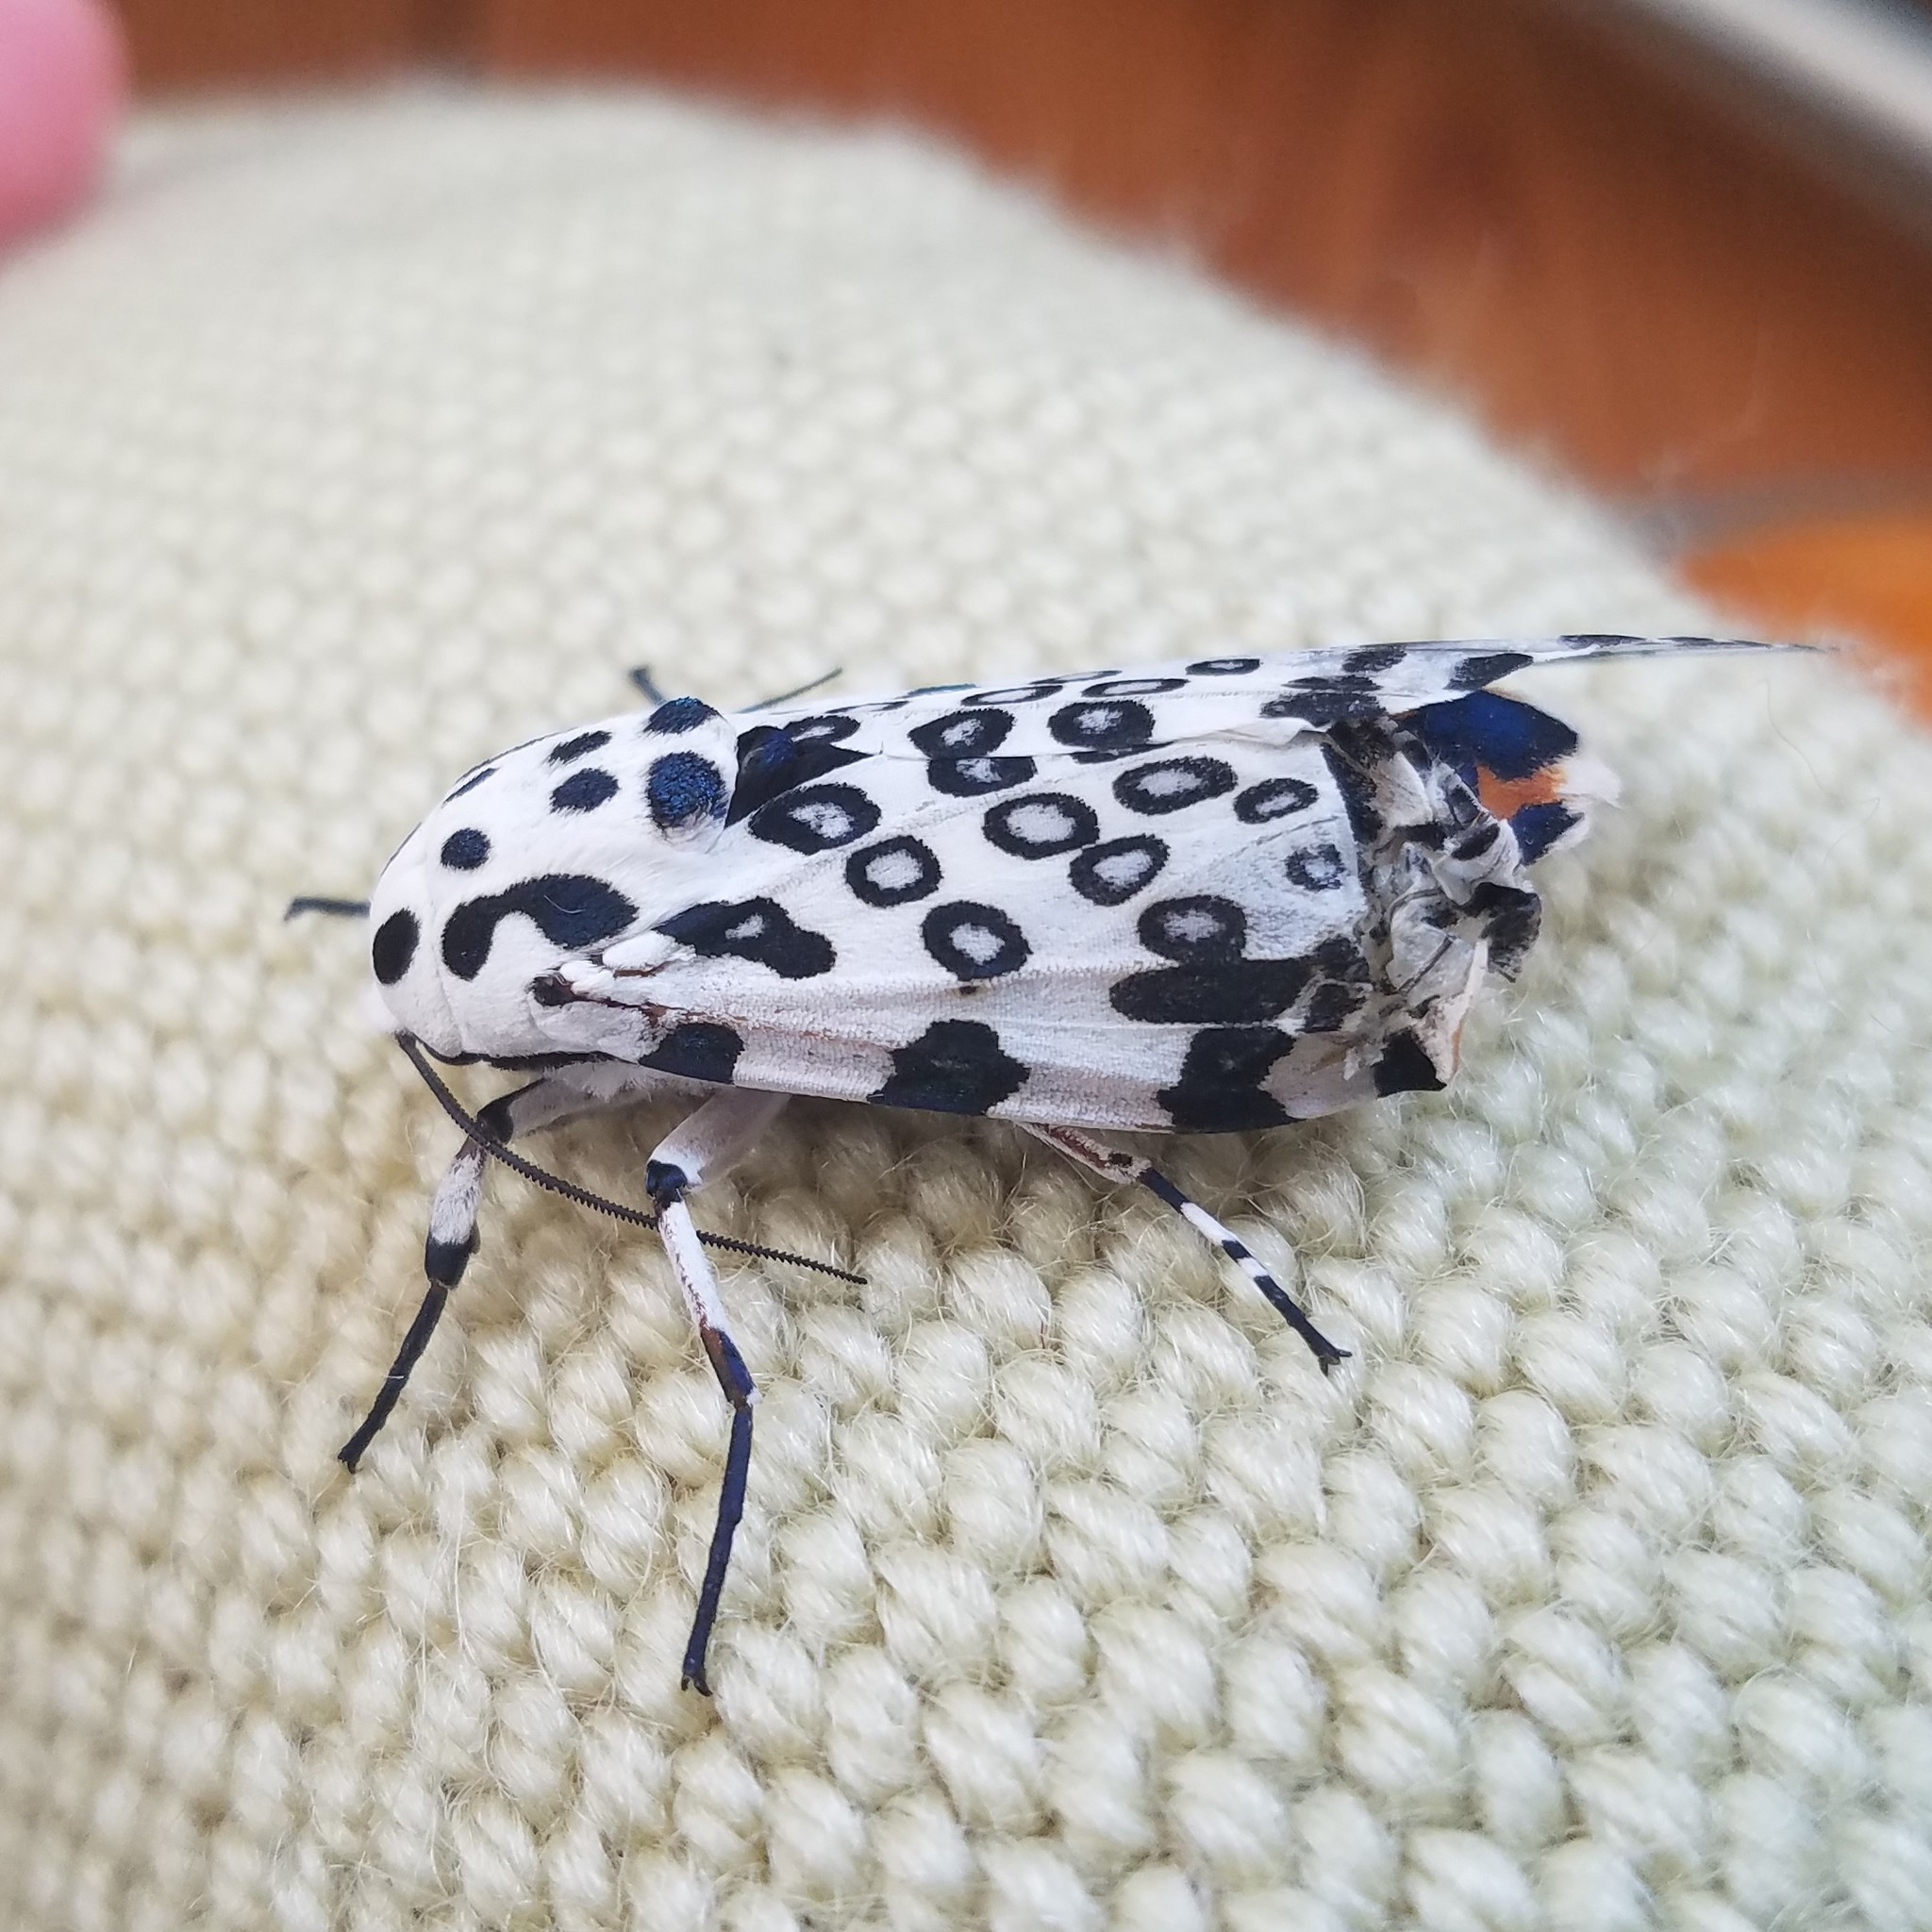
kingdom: Animalia
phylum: Arthropoda
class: Insecta
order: Lepidoptera
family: Erebidae
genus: Hypercompe
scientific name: Hypercompe scribonia
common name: Giant leopard moth
